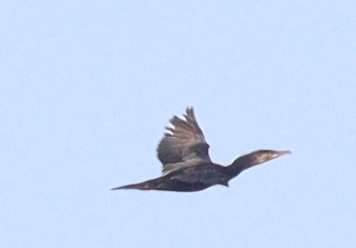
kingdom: Animalia
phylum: Chordata
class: Aves
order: Suliformes
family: Phalacrocoracidae
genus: Phalacrocorax
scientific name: Phalacrocorax carbo
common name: Great cormorant
